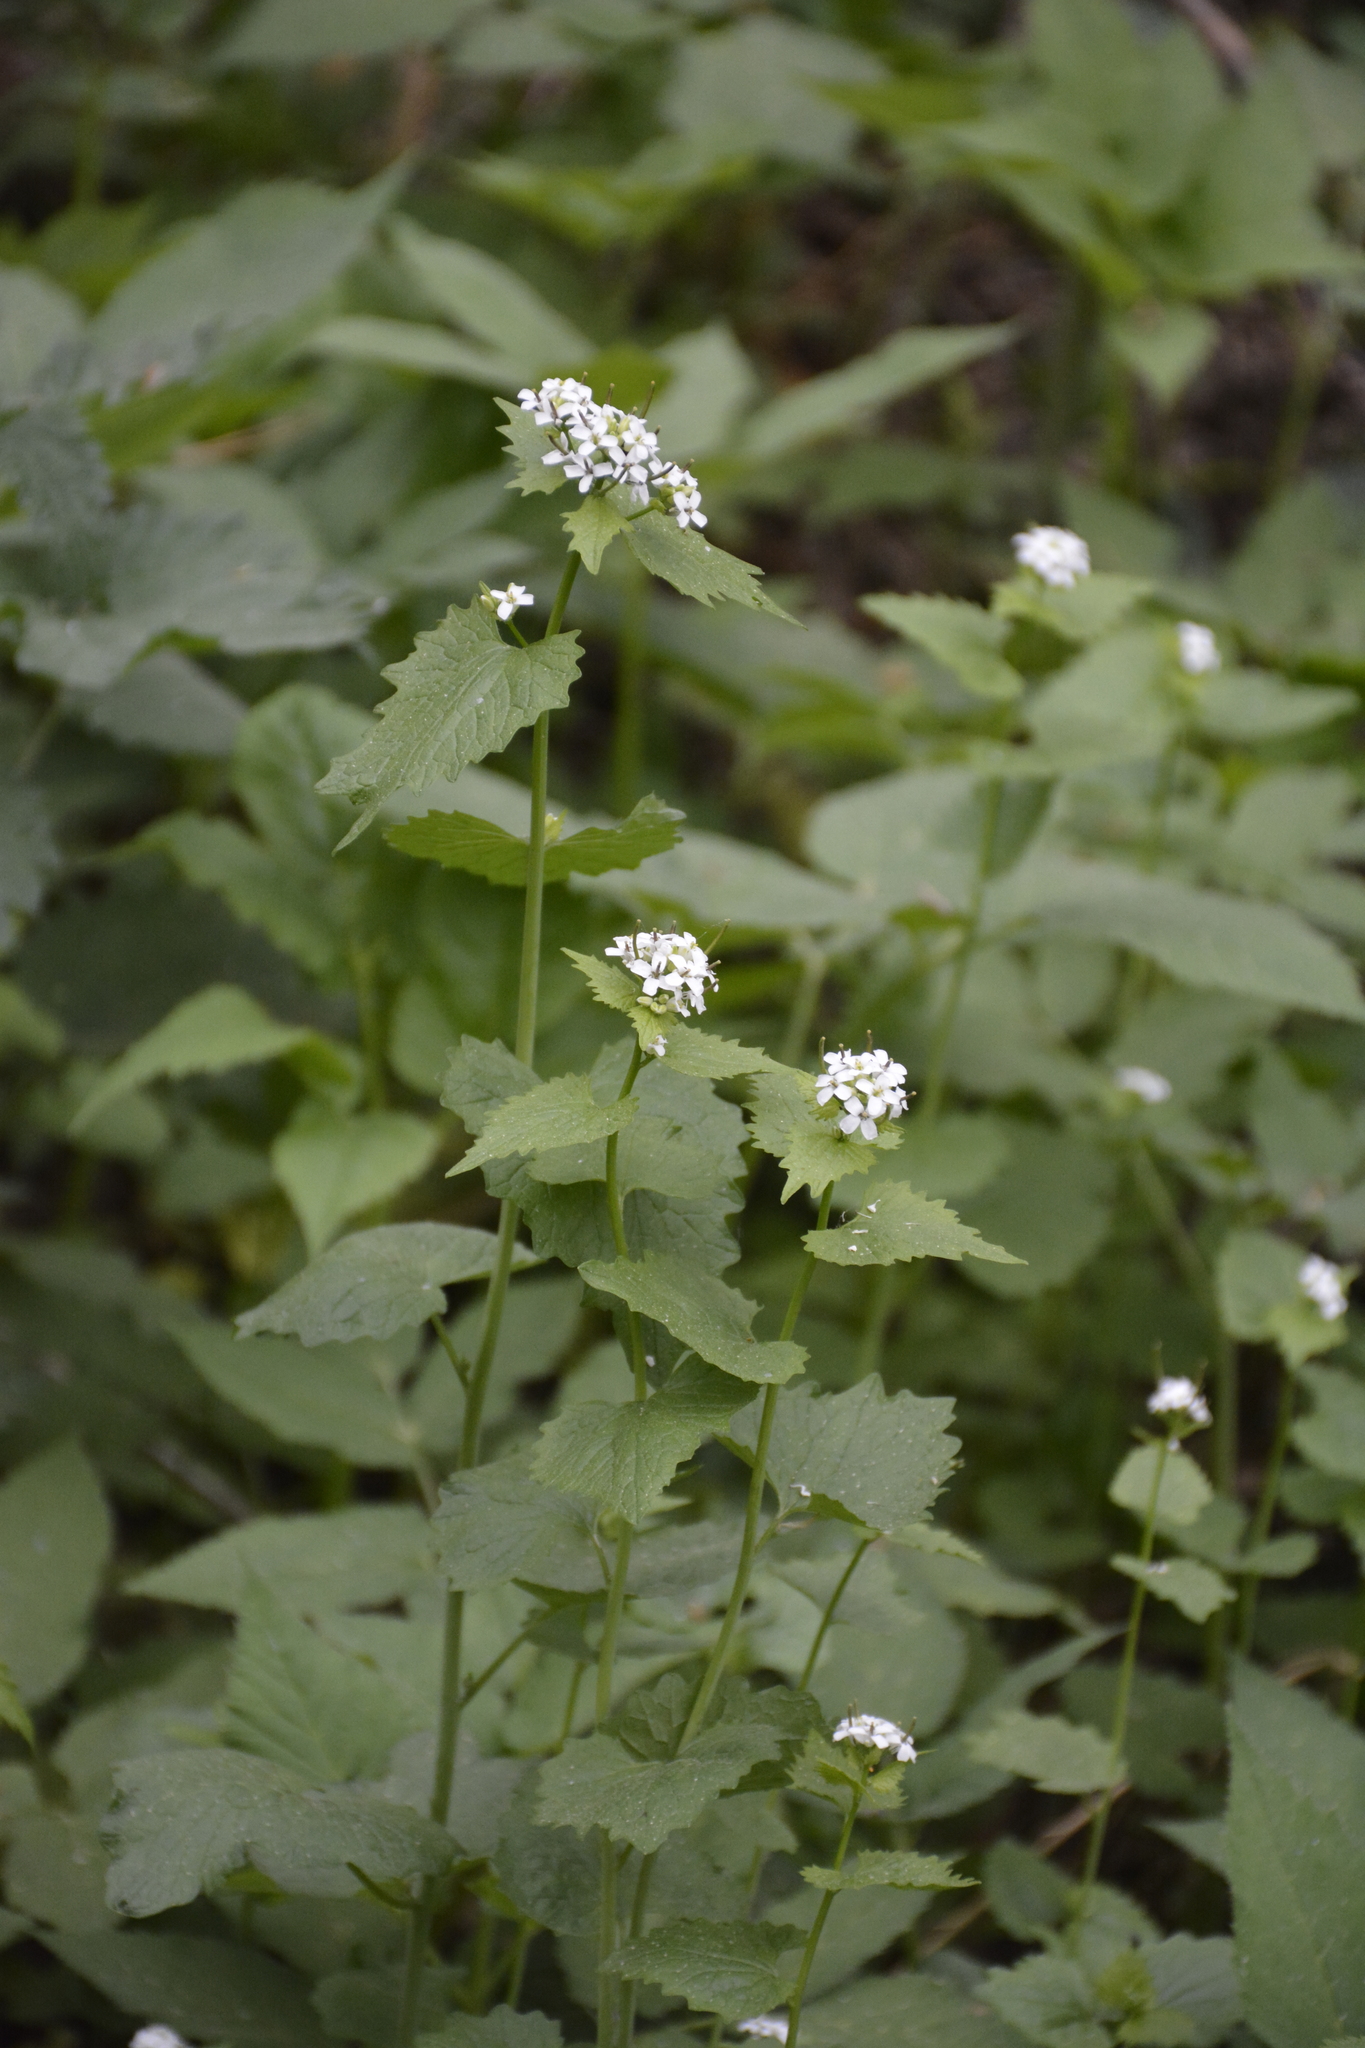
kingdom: Plantae
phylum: Tracheophyta
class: Magnoliopsida
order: Brassicales
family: Brassicaceae
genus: Alliaria
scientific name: Alliaria petiolata
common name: Garlic mustard
